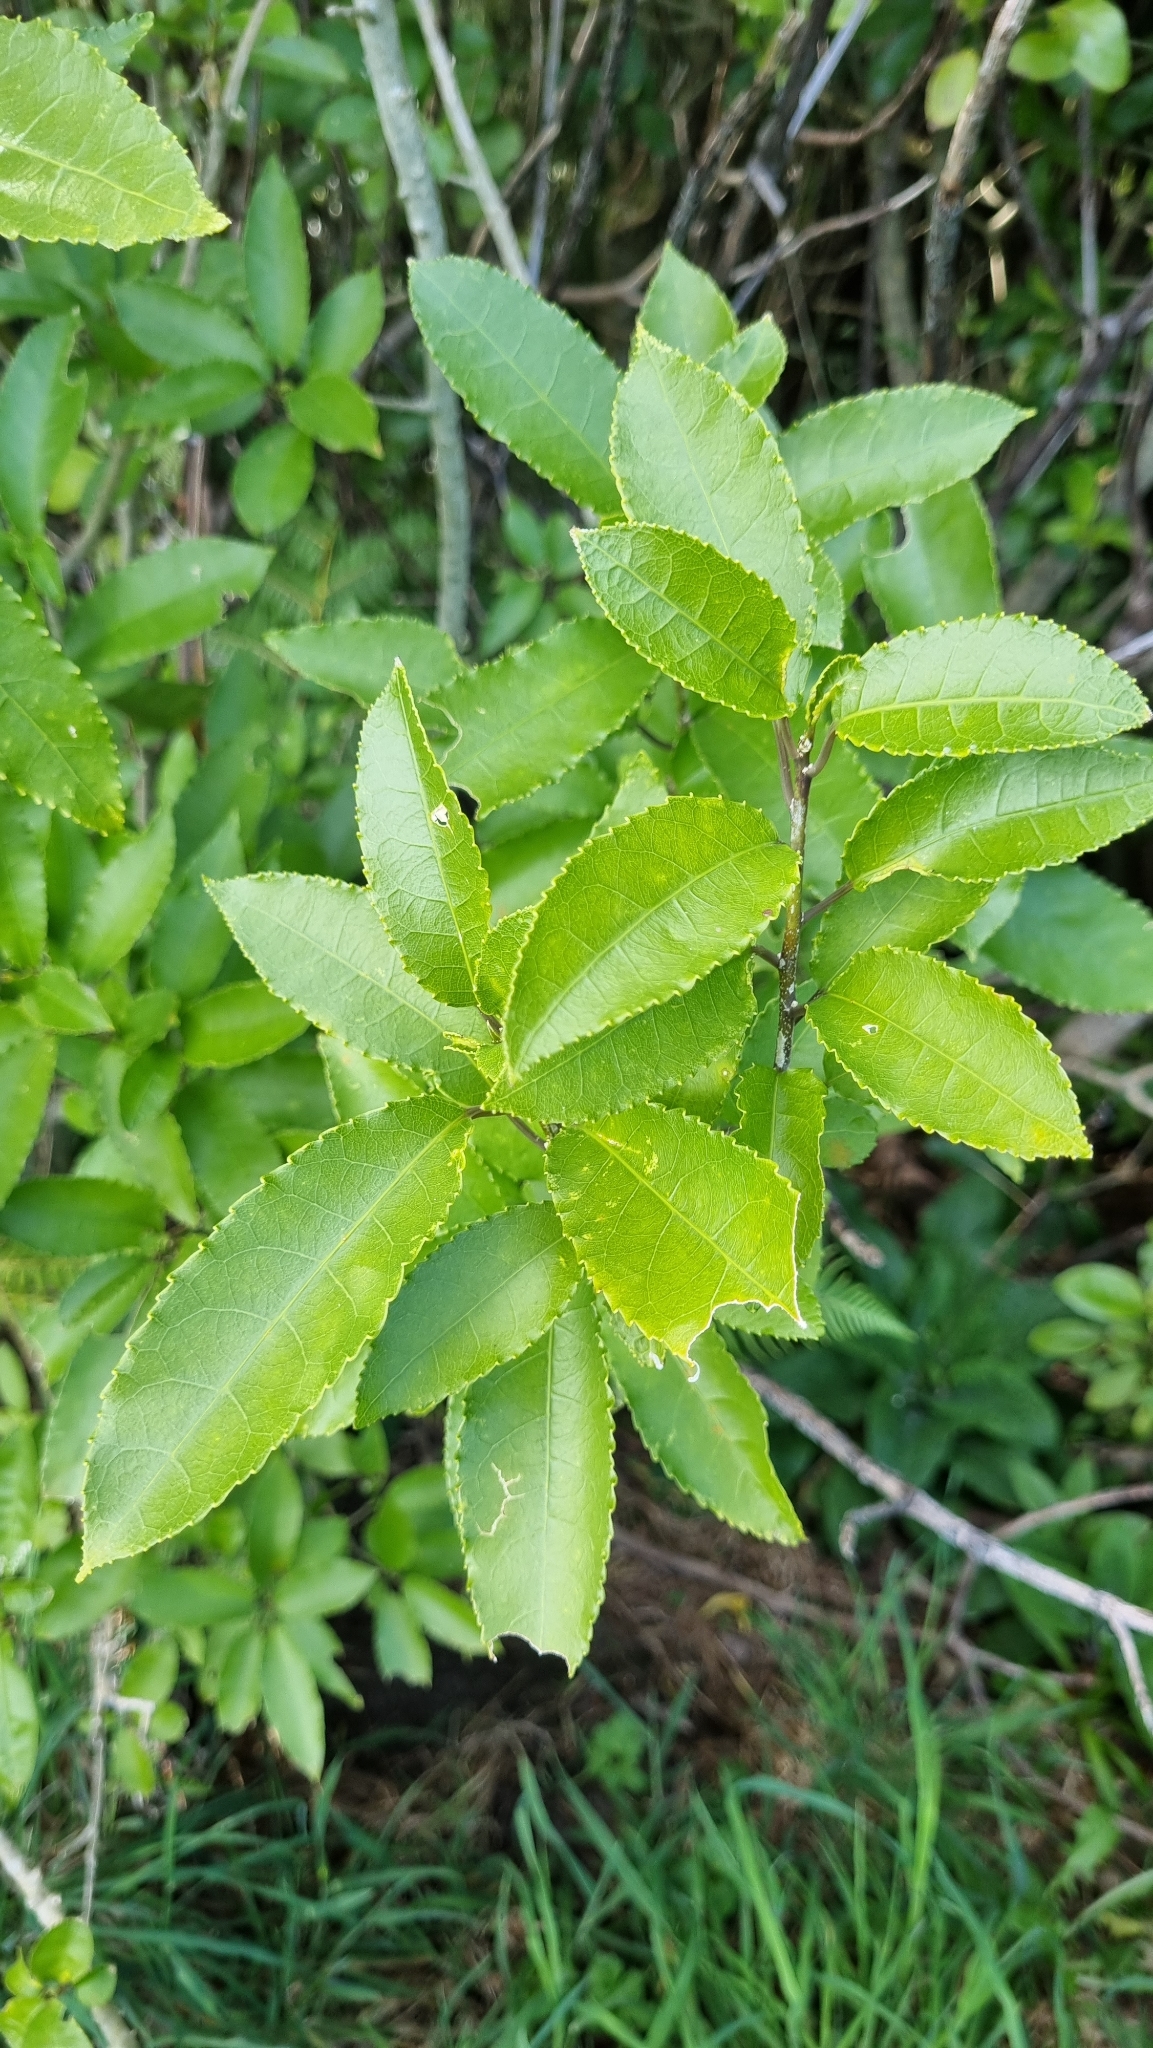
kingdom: Plantae
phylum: Tracheophyta
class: Magnoliopsida
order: Malpighiales
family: Violaceae
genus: Melicytus
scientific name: Melicytus ramiflorus
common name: Mahoe
